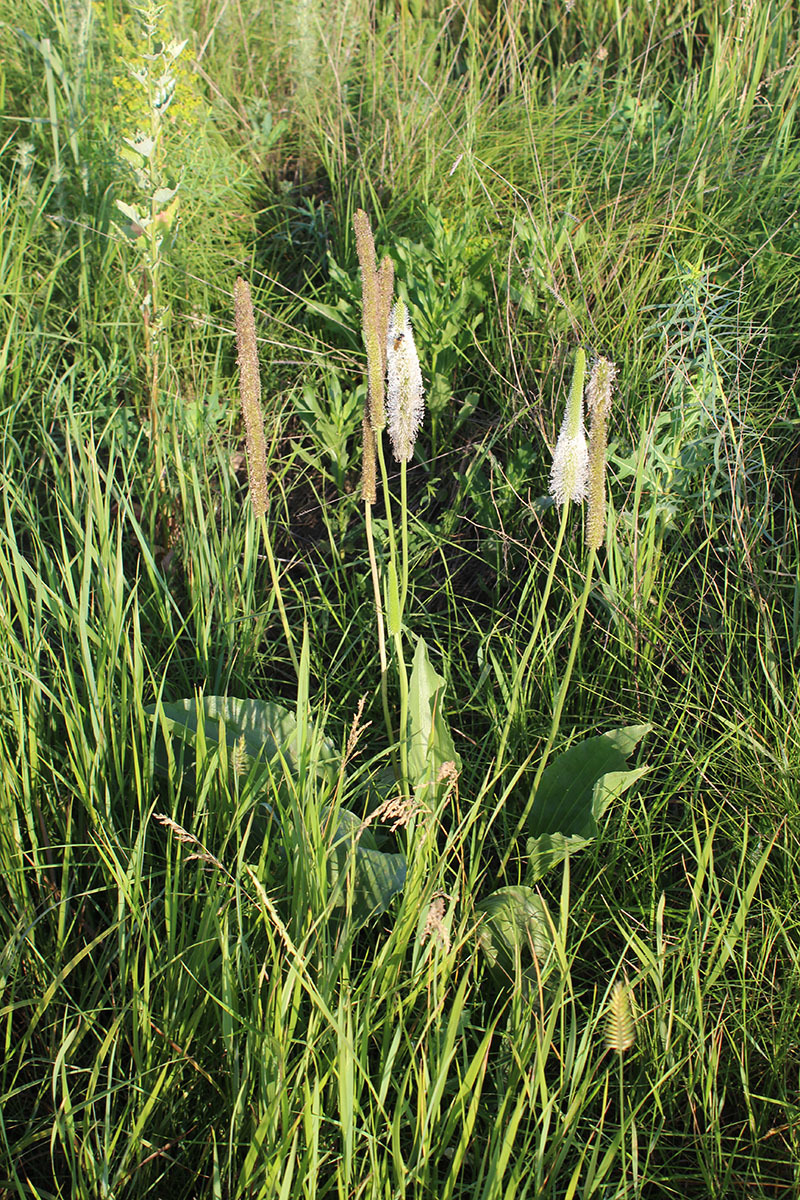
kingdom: Plantae
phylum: Tracheophyta
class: Magnoliopsida
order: Lamiales
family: Plantaginaceae
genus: Plantago
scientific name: Plantago maxima
